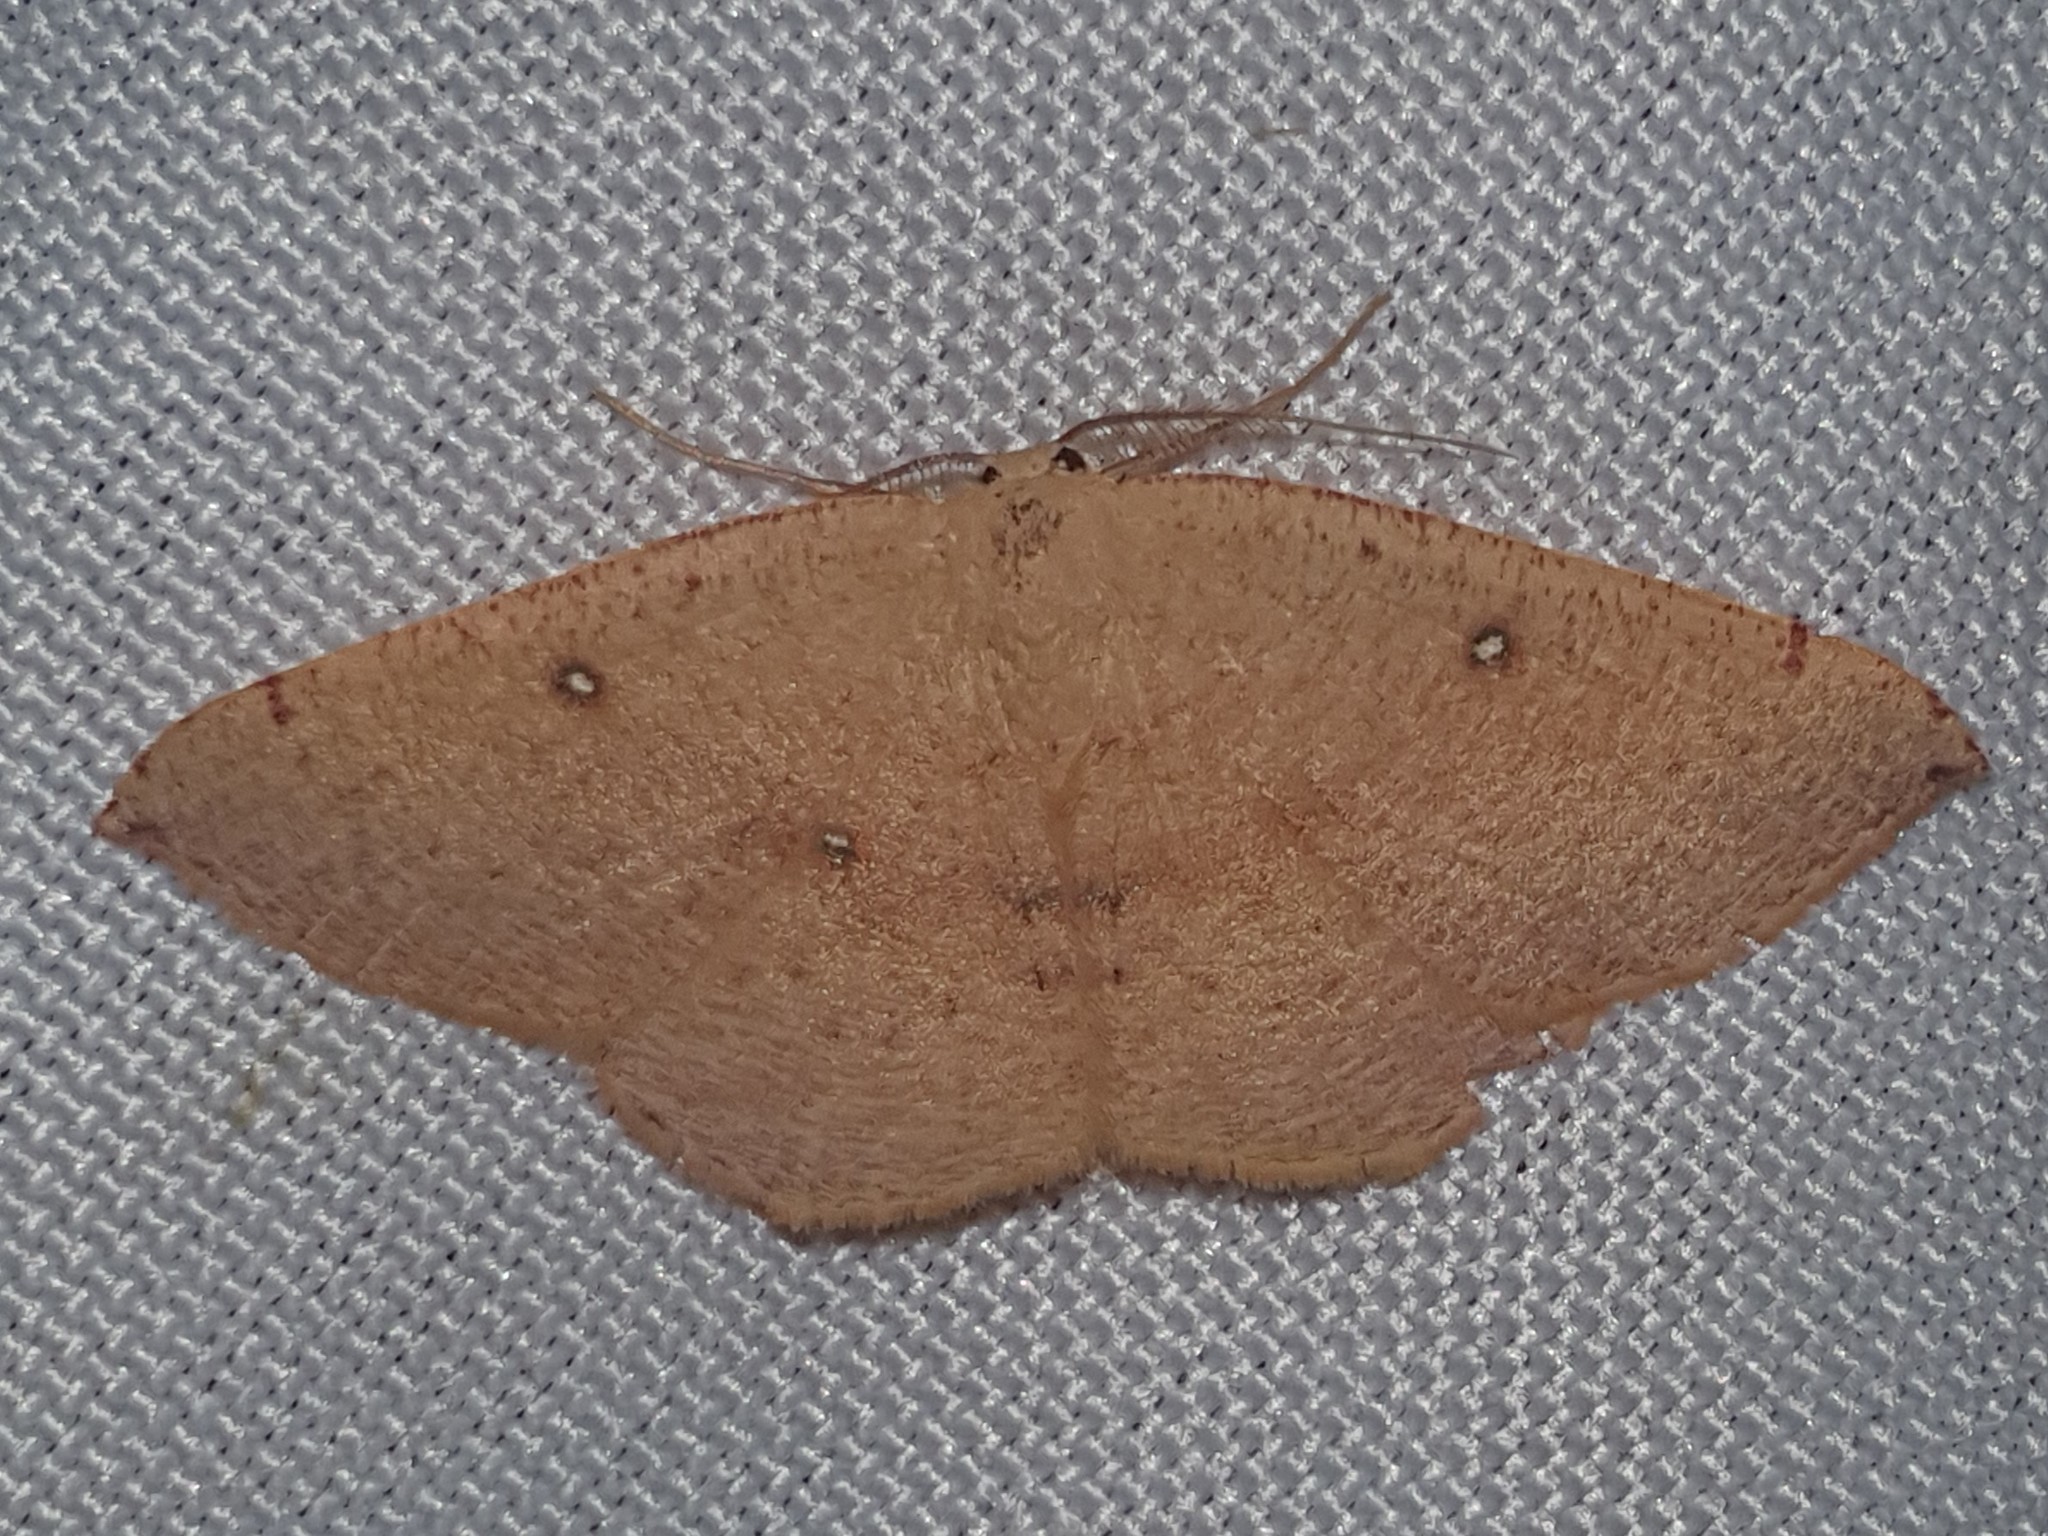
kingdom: Animalia
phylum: Arthropoda
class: Insecta
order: Lepidoptera
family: Geometridae
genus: Cyclophora
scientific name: Cyclophora puppillaria
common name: Blair's mocha
